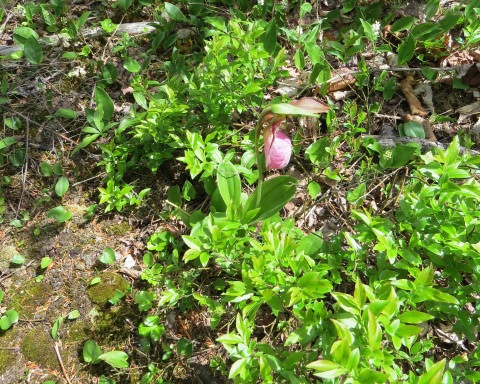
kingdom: Plantae
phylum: Tracheophyta
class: Liliopsida
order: Asparagales
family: Orchidaceae
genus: Cypripedium
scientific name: Cypripedium acaule
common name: Pink lady's-slipper
